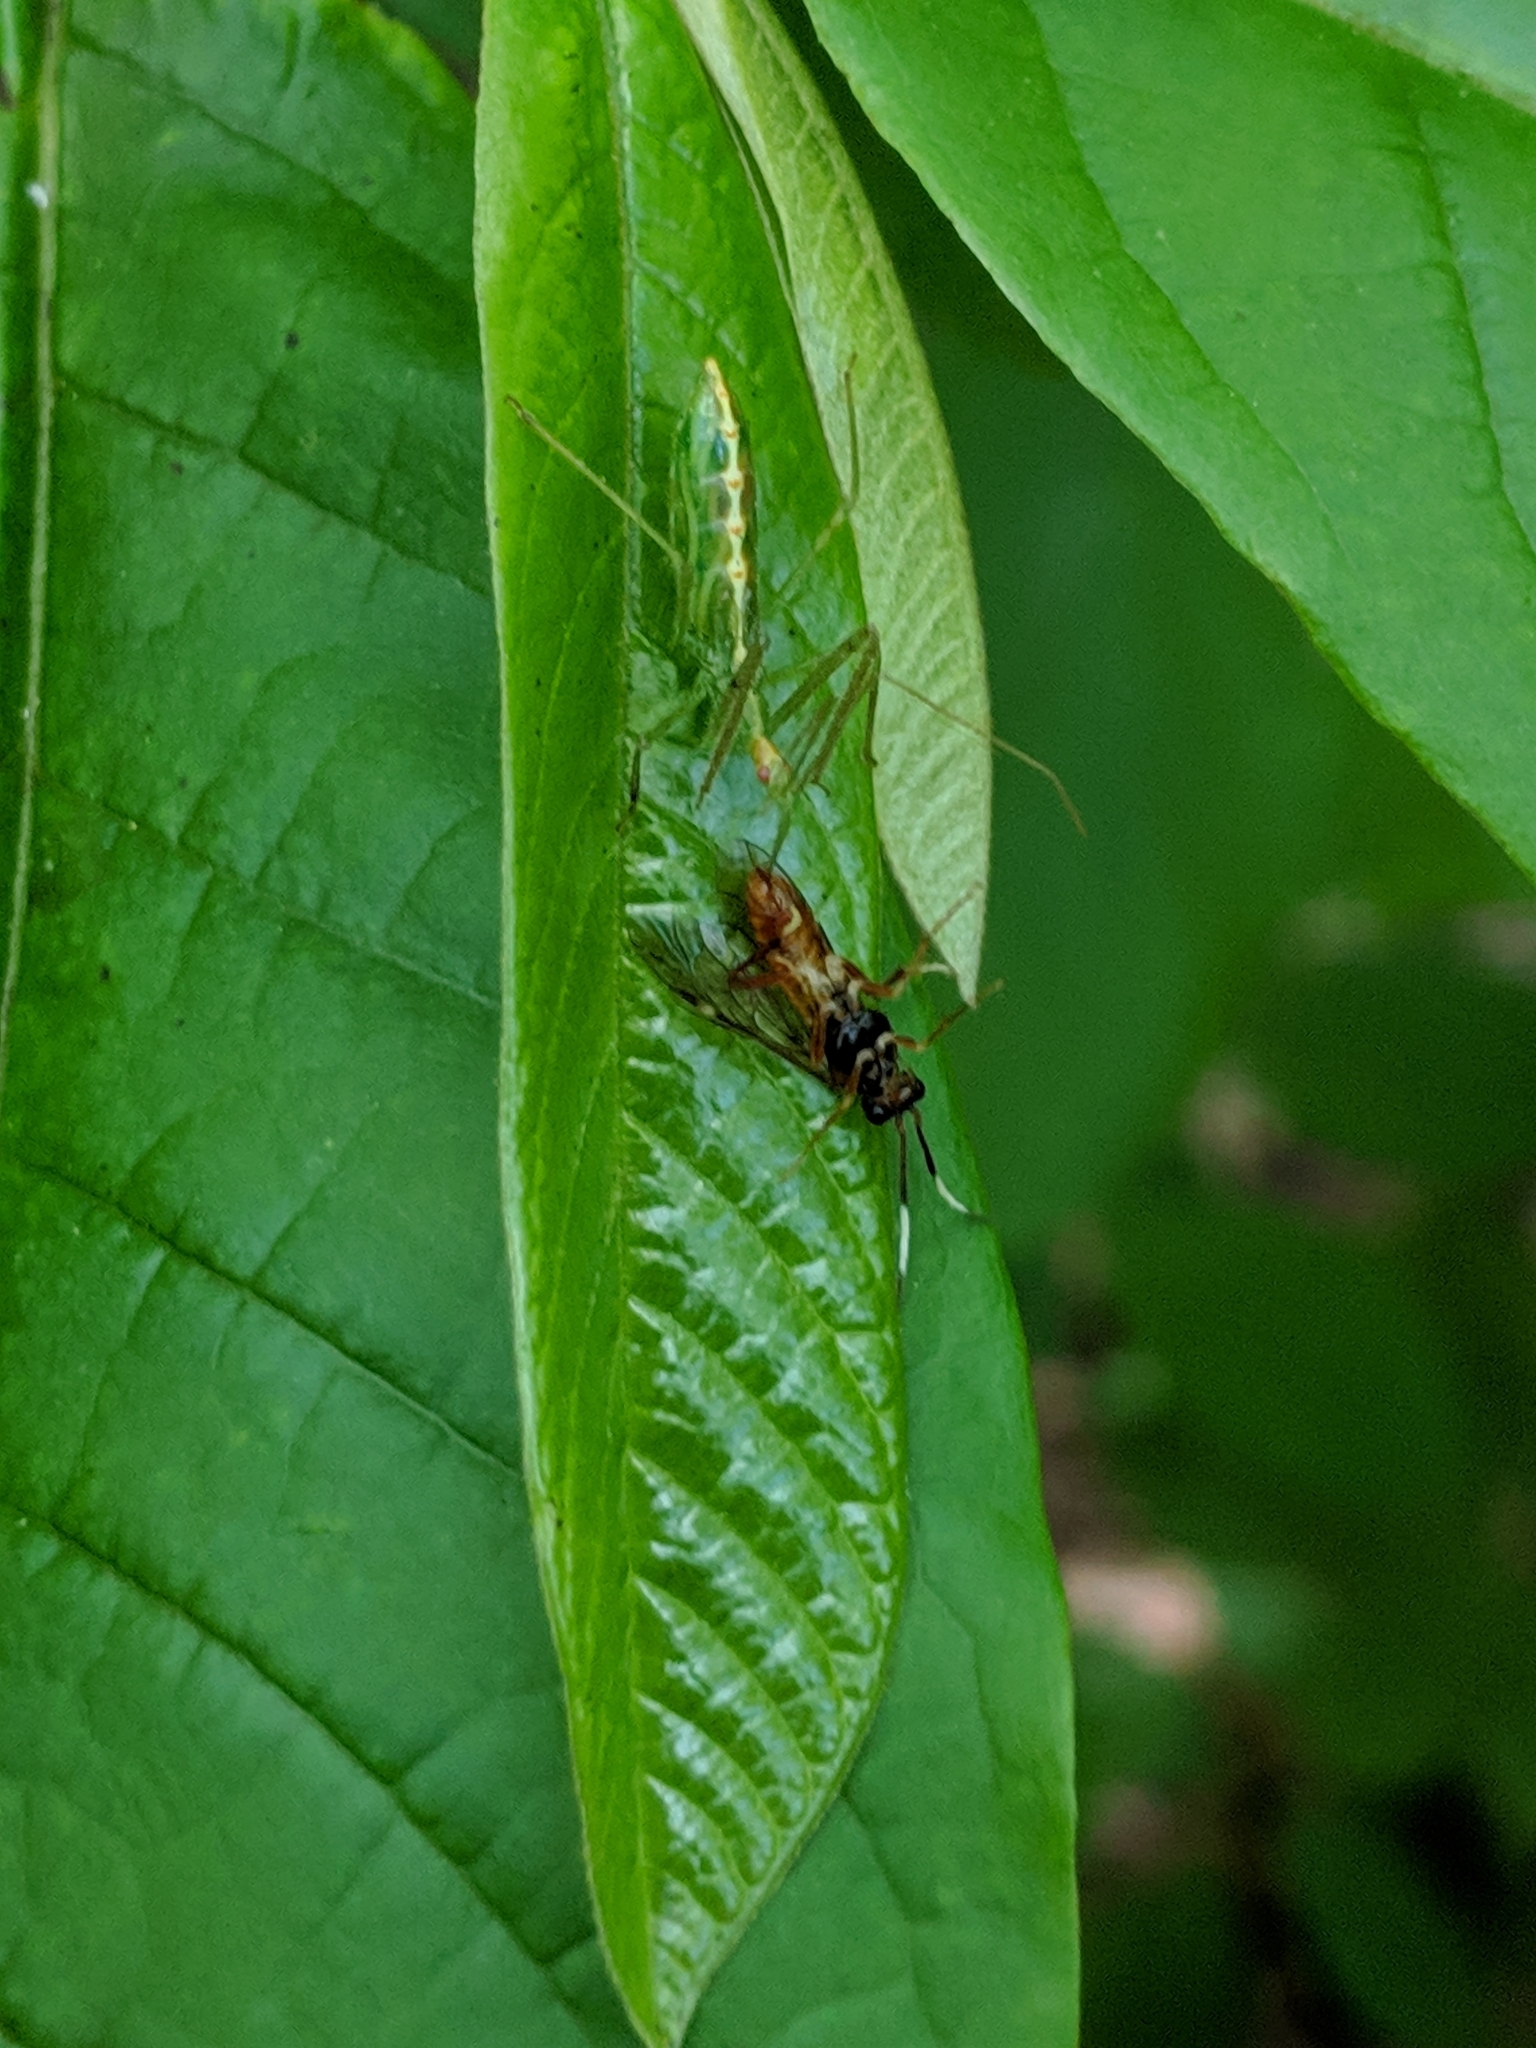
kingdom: Animalia
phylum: Arthropoda
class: Insecta
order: Hemiptera
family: Reduviidae
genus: Zelus
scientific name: Zelus luridus
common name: Pale green assassin bug
